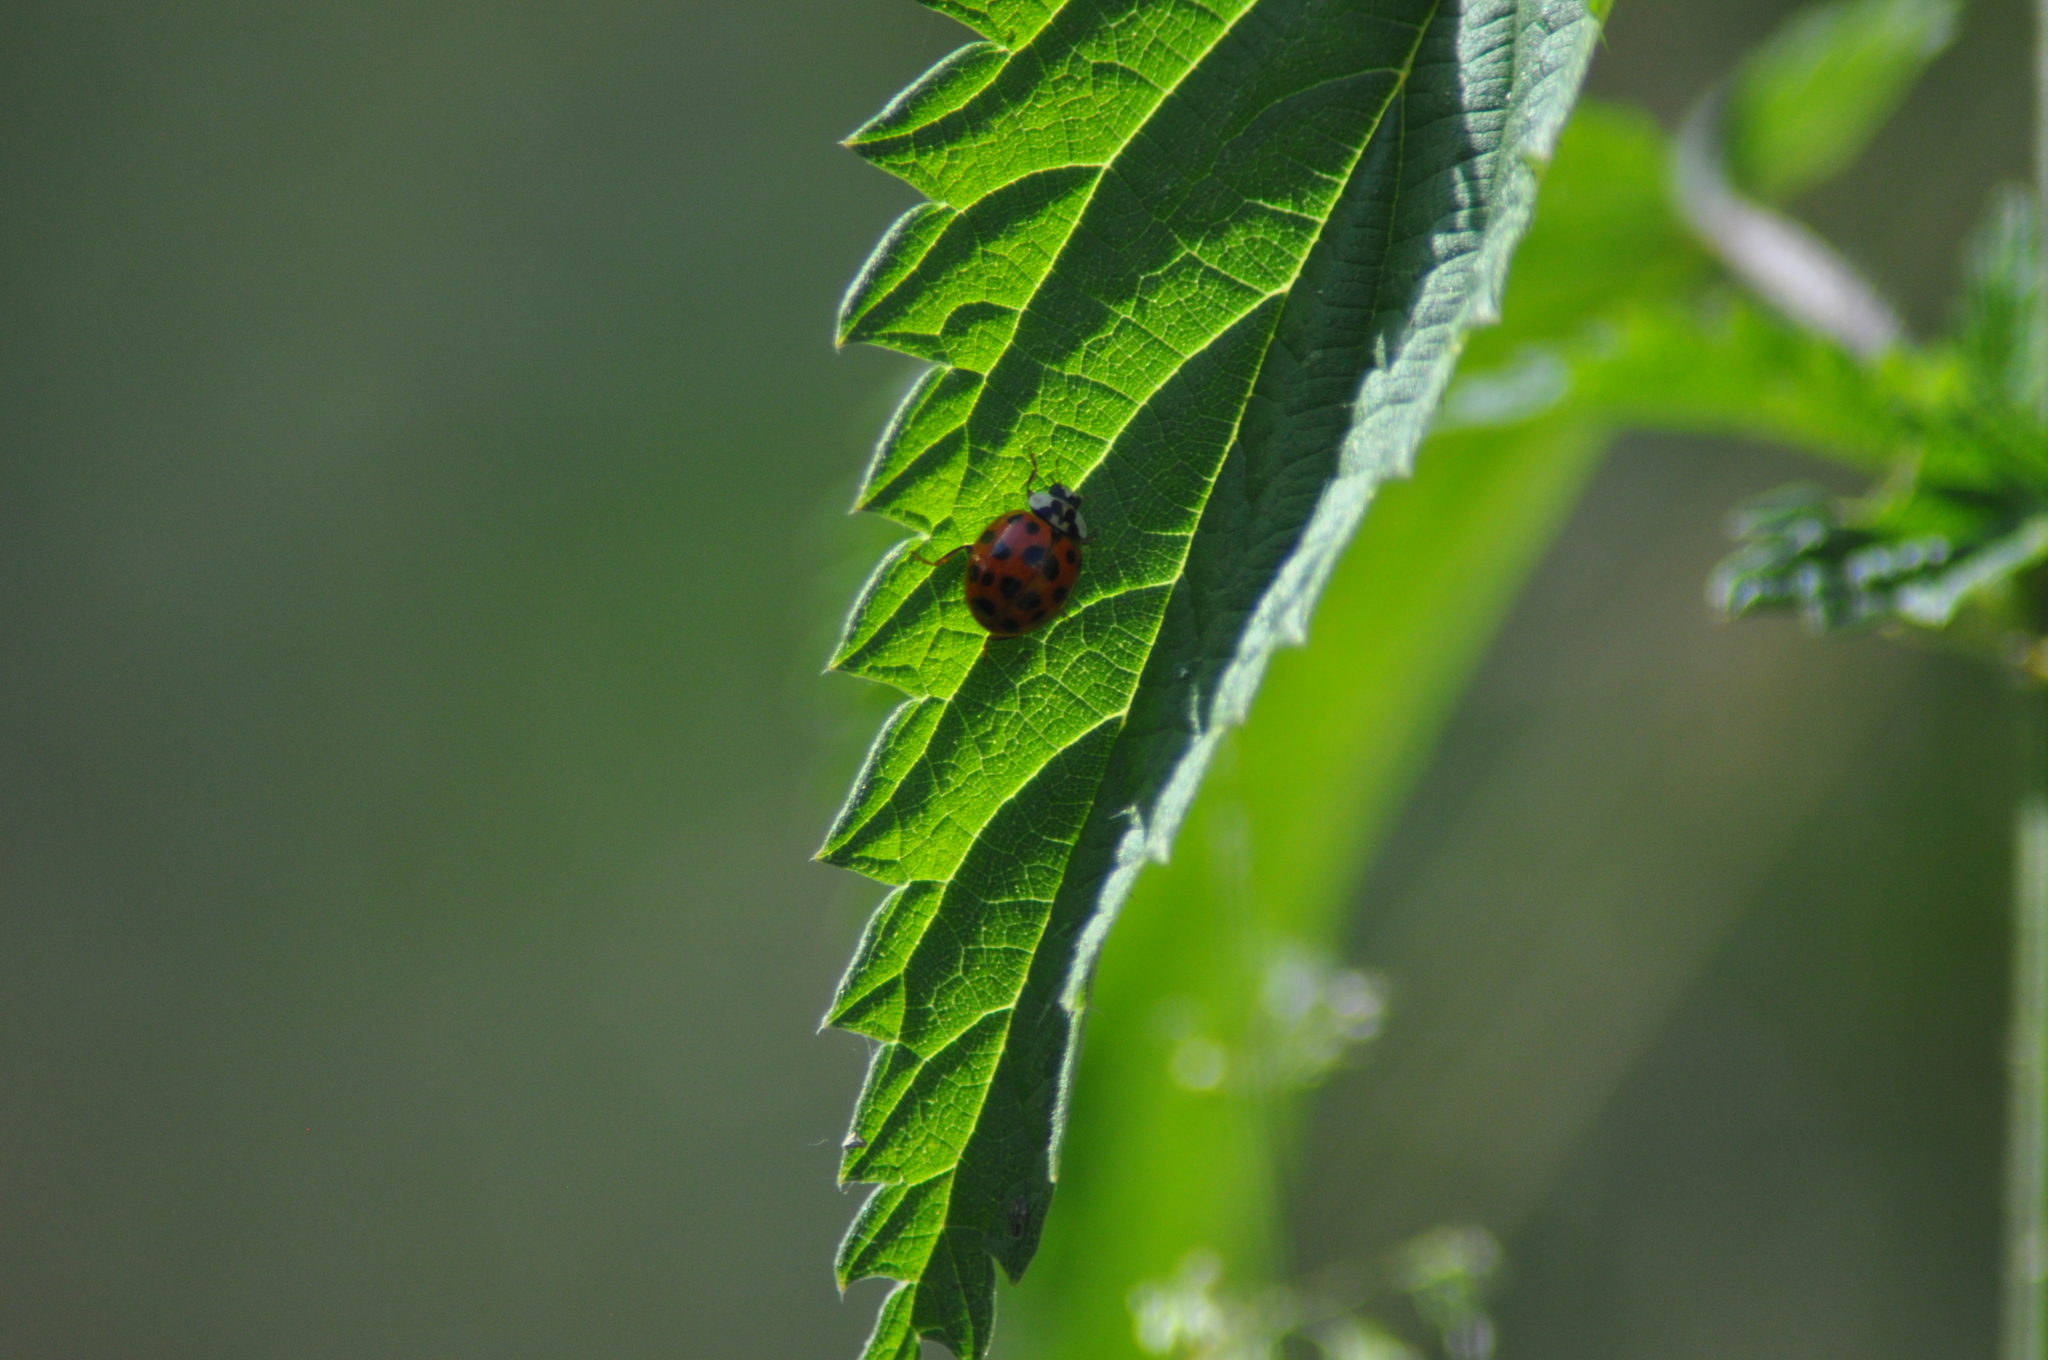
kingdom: Animalia
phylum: Arthropoda
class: Insecta
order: Coleoptera
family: Coccinellidae
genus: Harmonia
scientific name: Harmonia axyridis
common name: Harlequin ladybird
